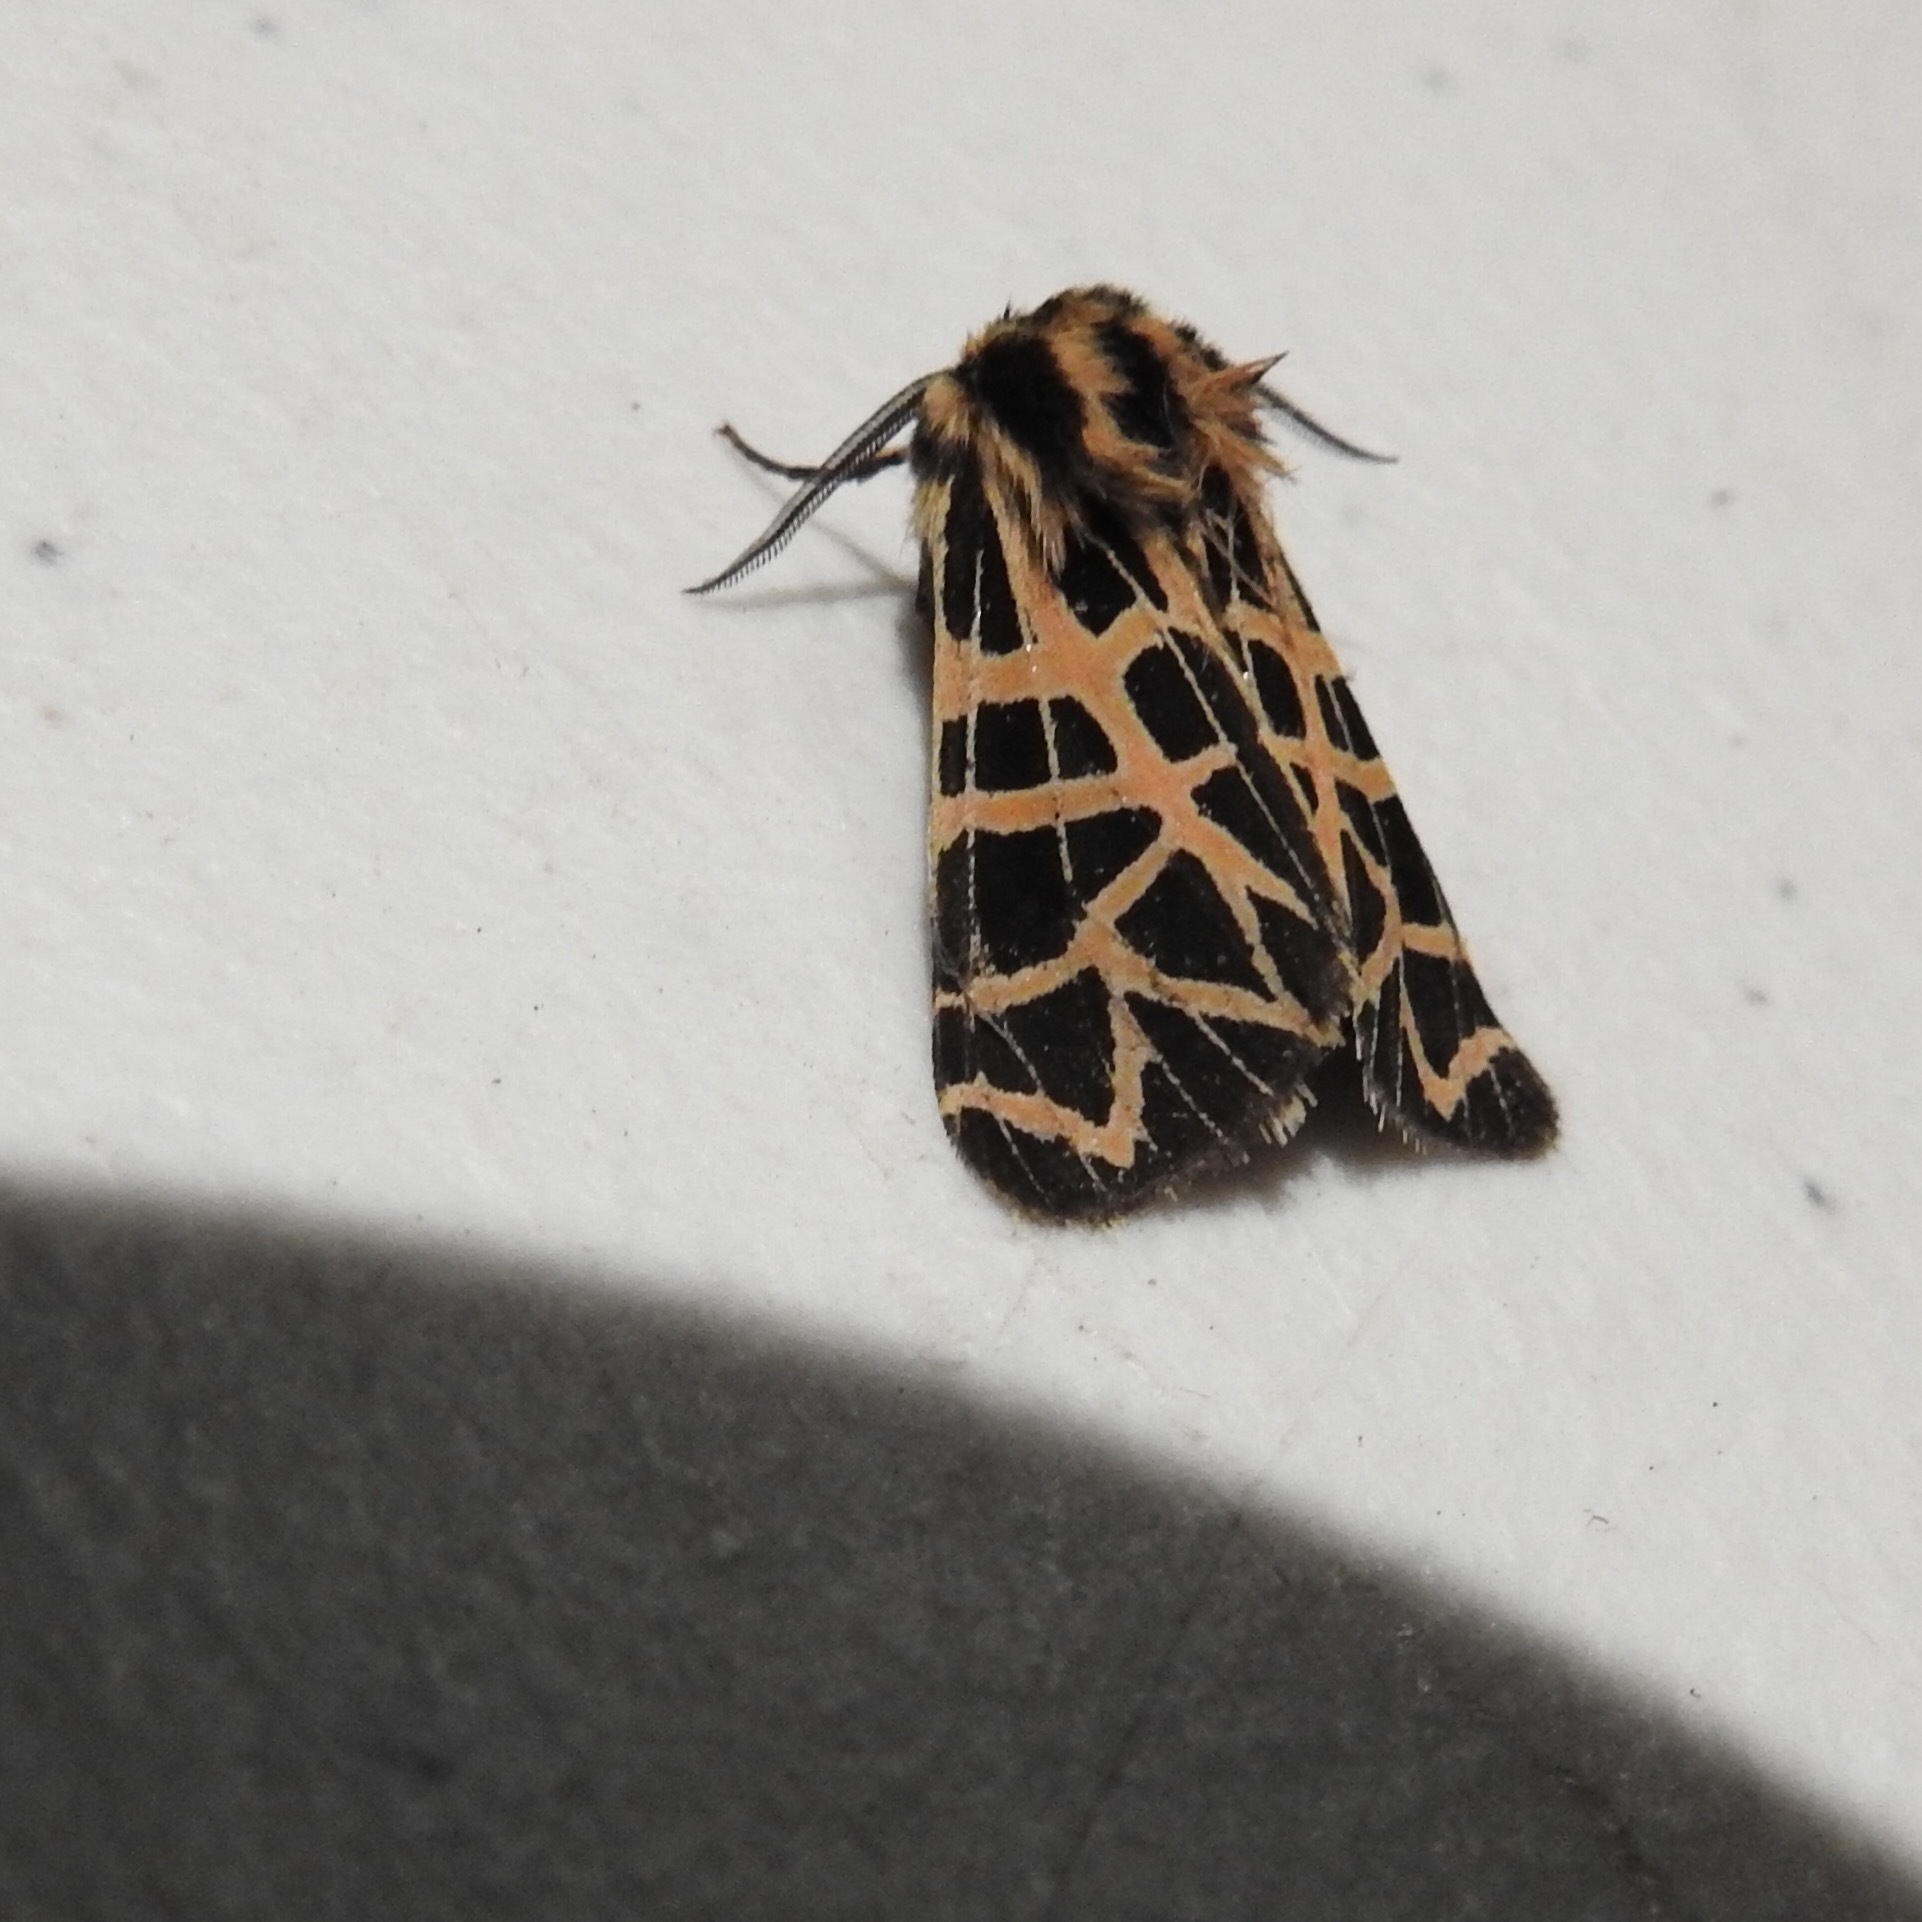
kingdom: Animalia
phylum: Arthropoda
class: Insecta
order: Lepidoptera
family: Erebidae
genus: Apantesis
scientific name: Apantesis
